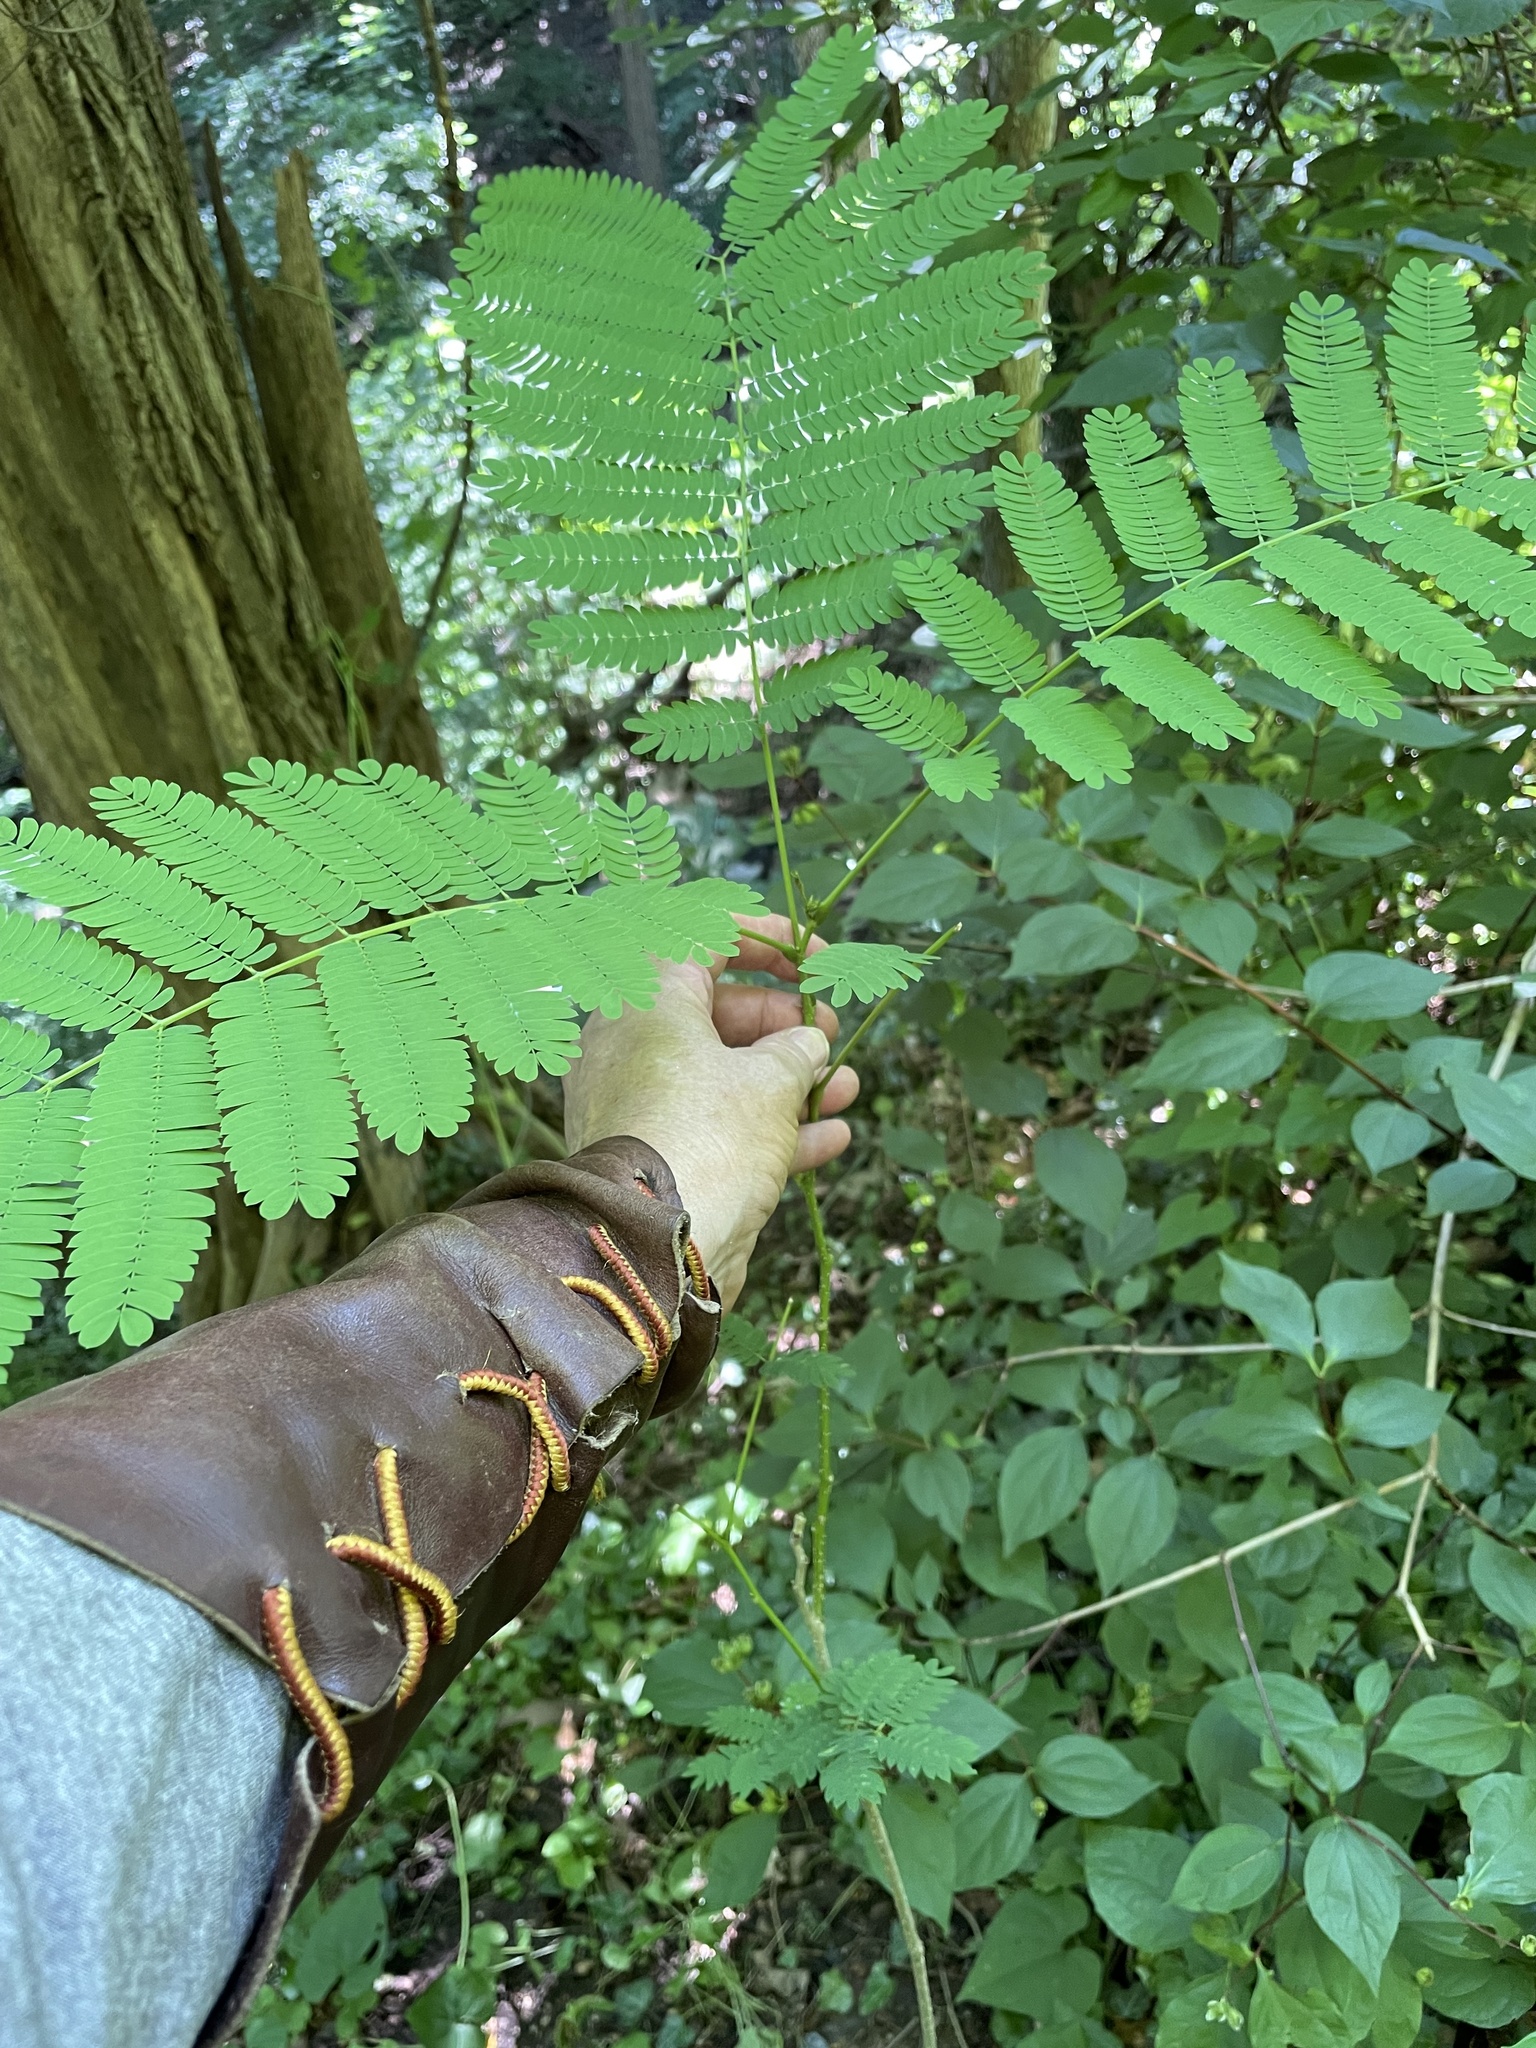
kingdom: Plantae
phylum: Tracheophyta
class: Magnoliopsida
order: Fabales
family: Fabaceae
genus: Albizia
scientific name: Albizia julibrissin
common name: Silktree
